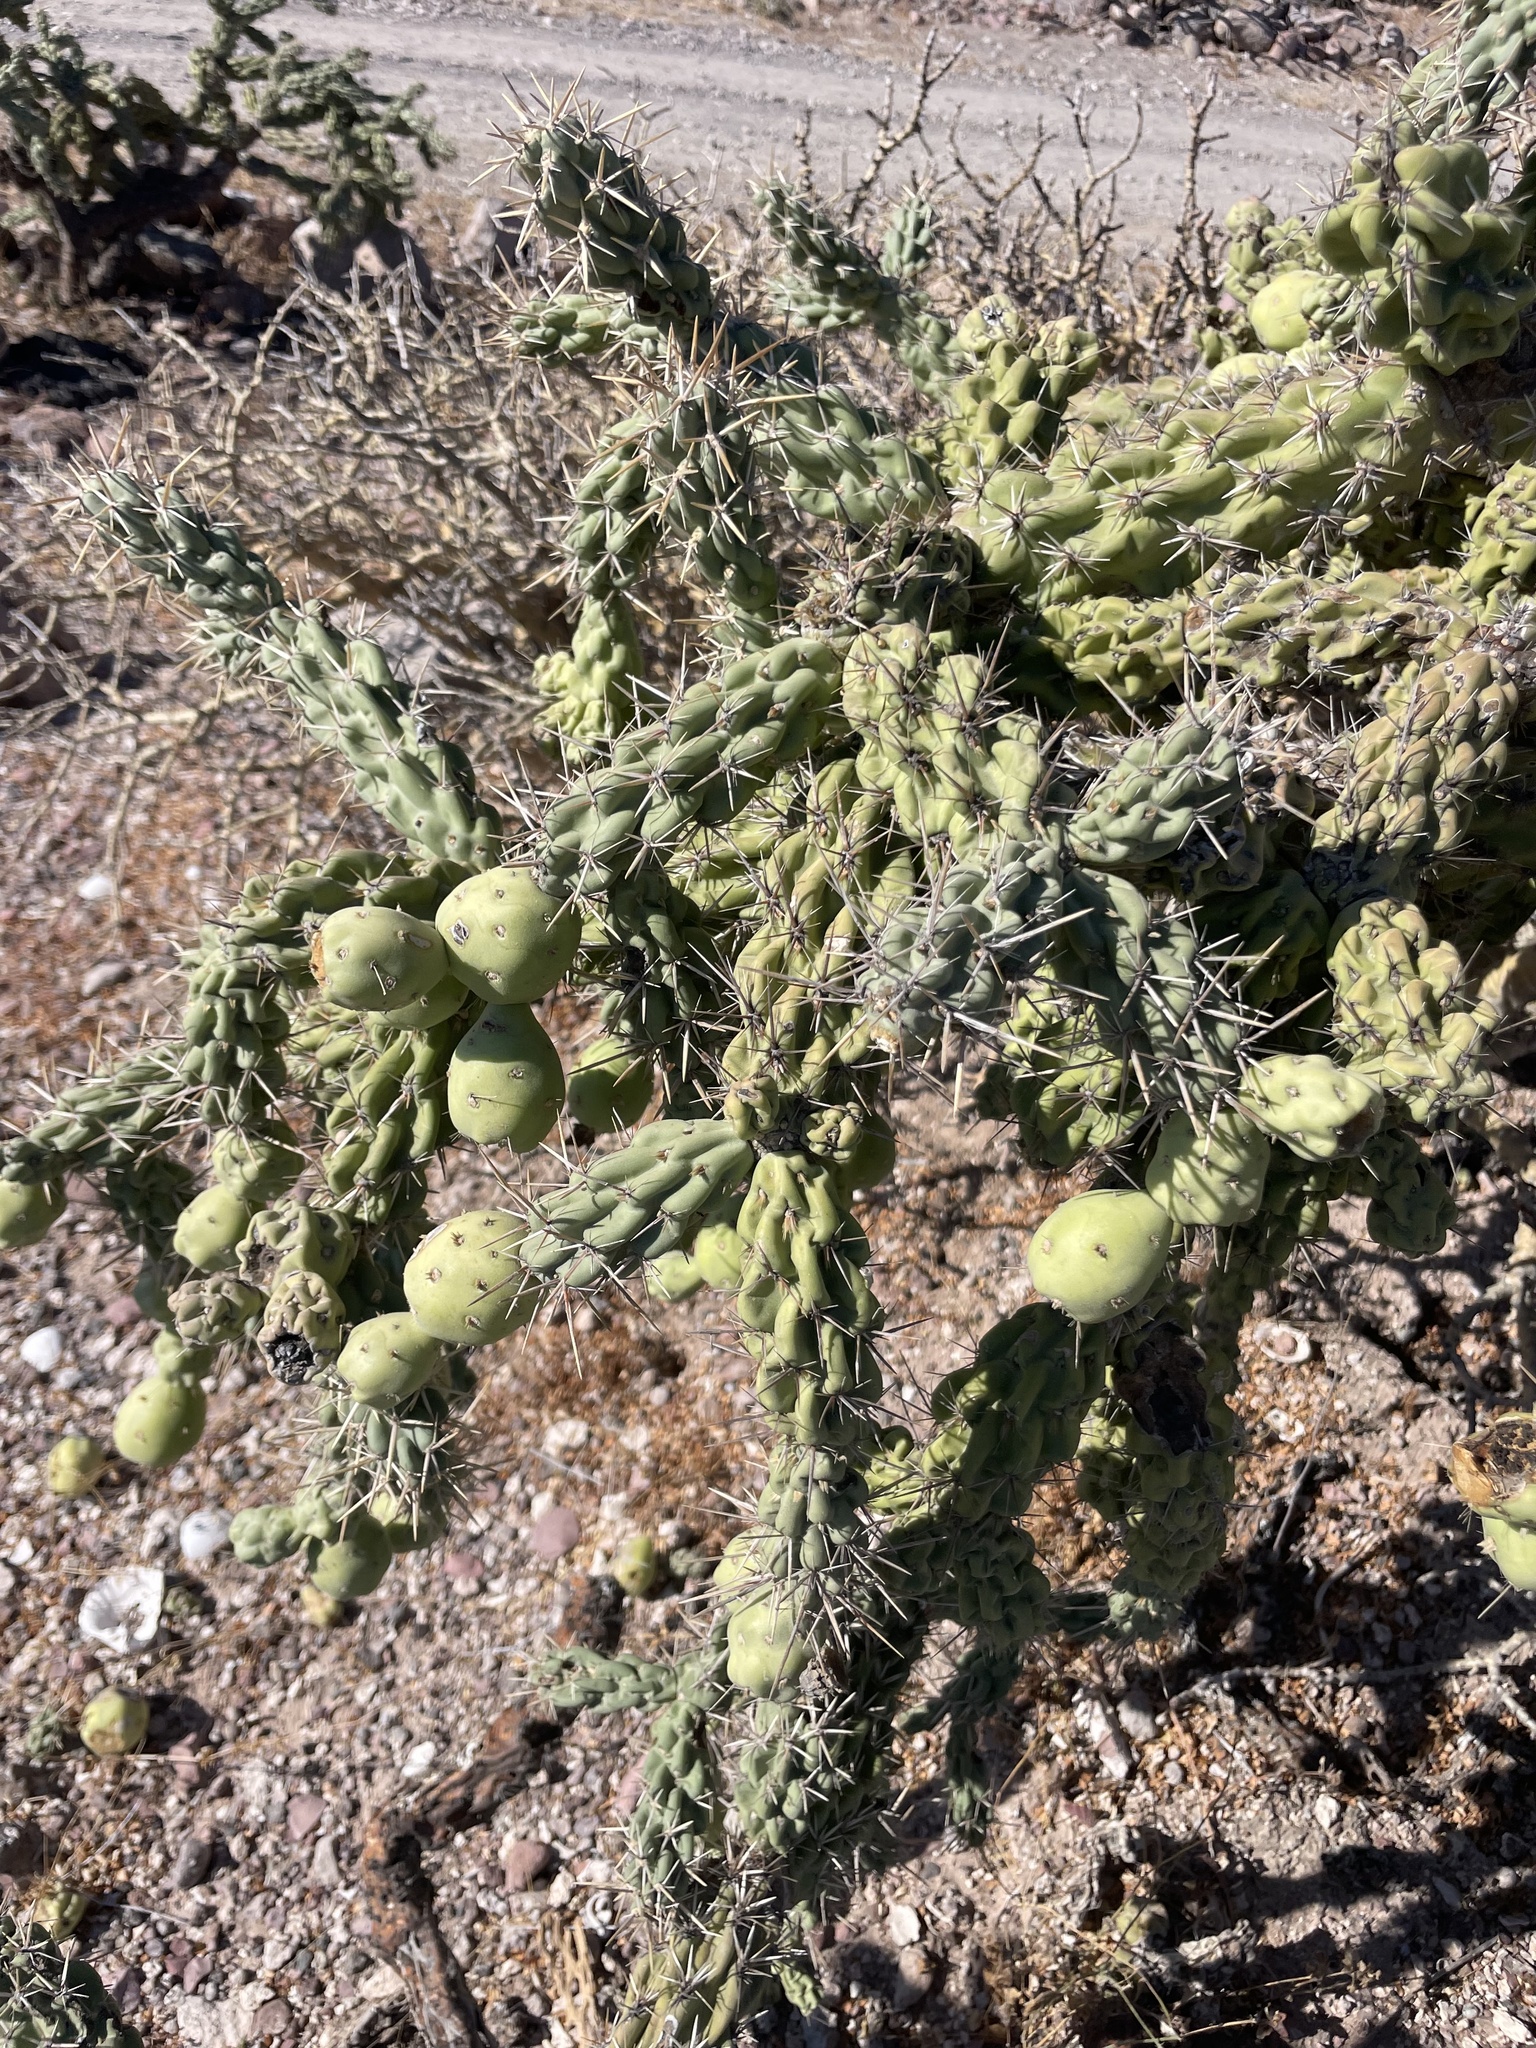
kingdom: Plantae
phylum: Tracheophyta
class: Magnoliopsida
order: Caryophyllales
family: Cactaceae
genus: Cylindropuntia
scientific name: Cylindropuntia cholla
